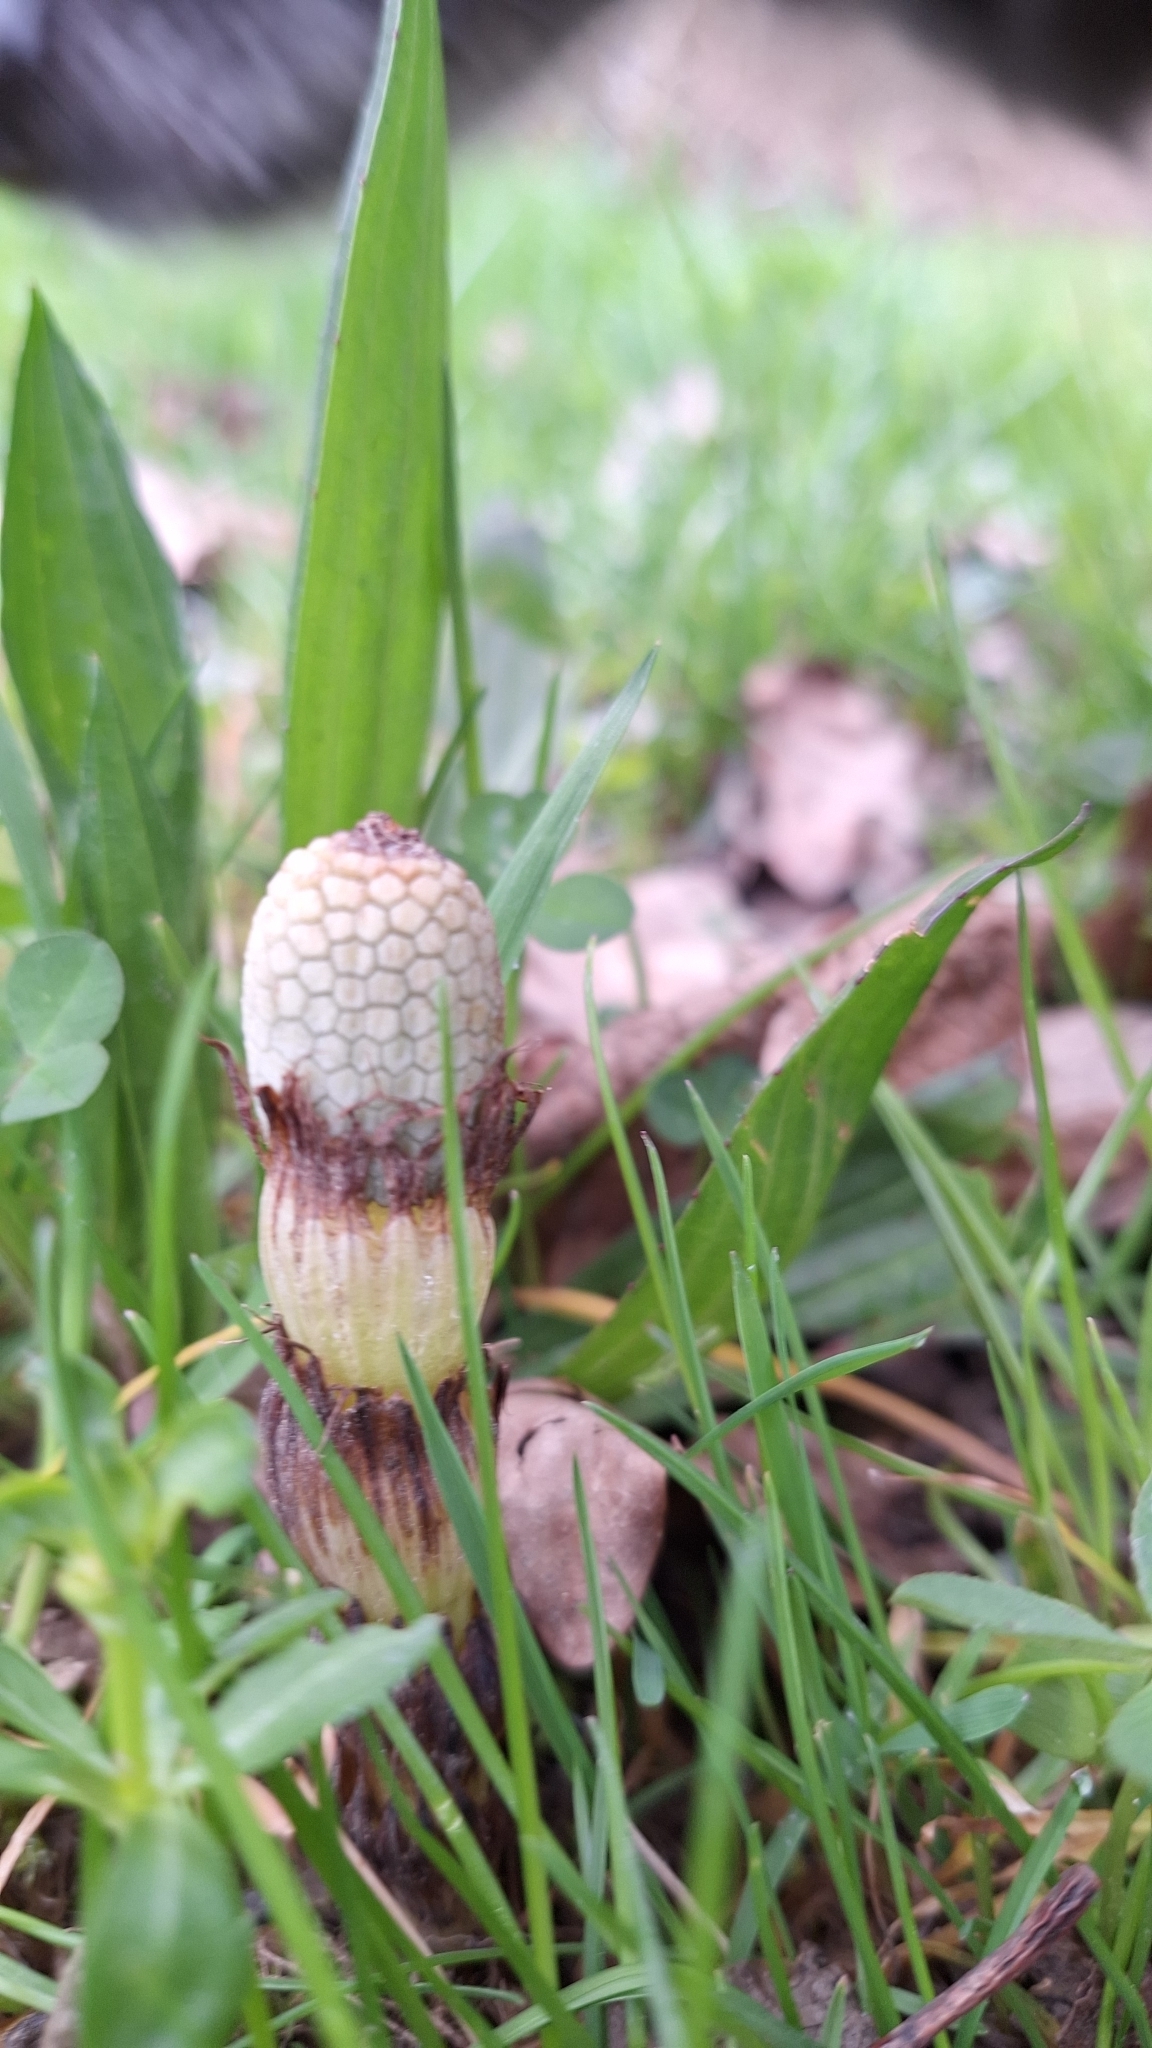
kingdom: Plantae
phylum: Tracheophyta
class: Polypodiopsida
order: Equisetales
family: Equisetaceae
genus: Equisetum
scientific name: Equisetum telmateia
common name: Great horsetail
